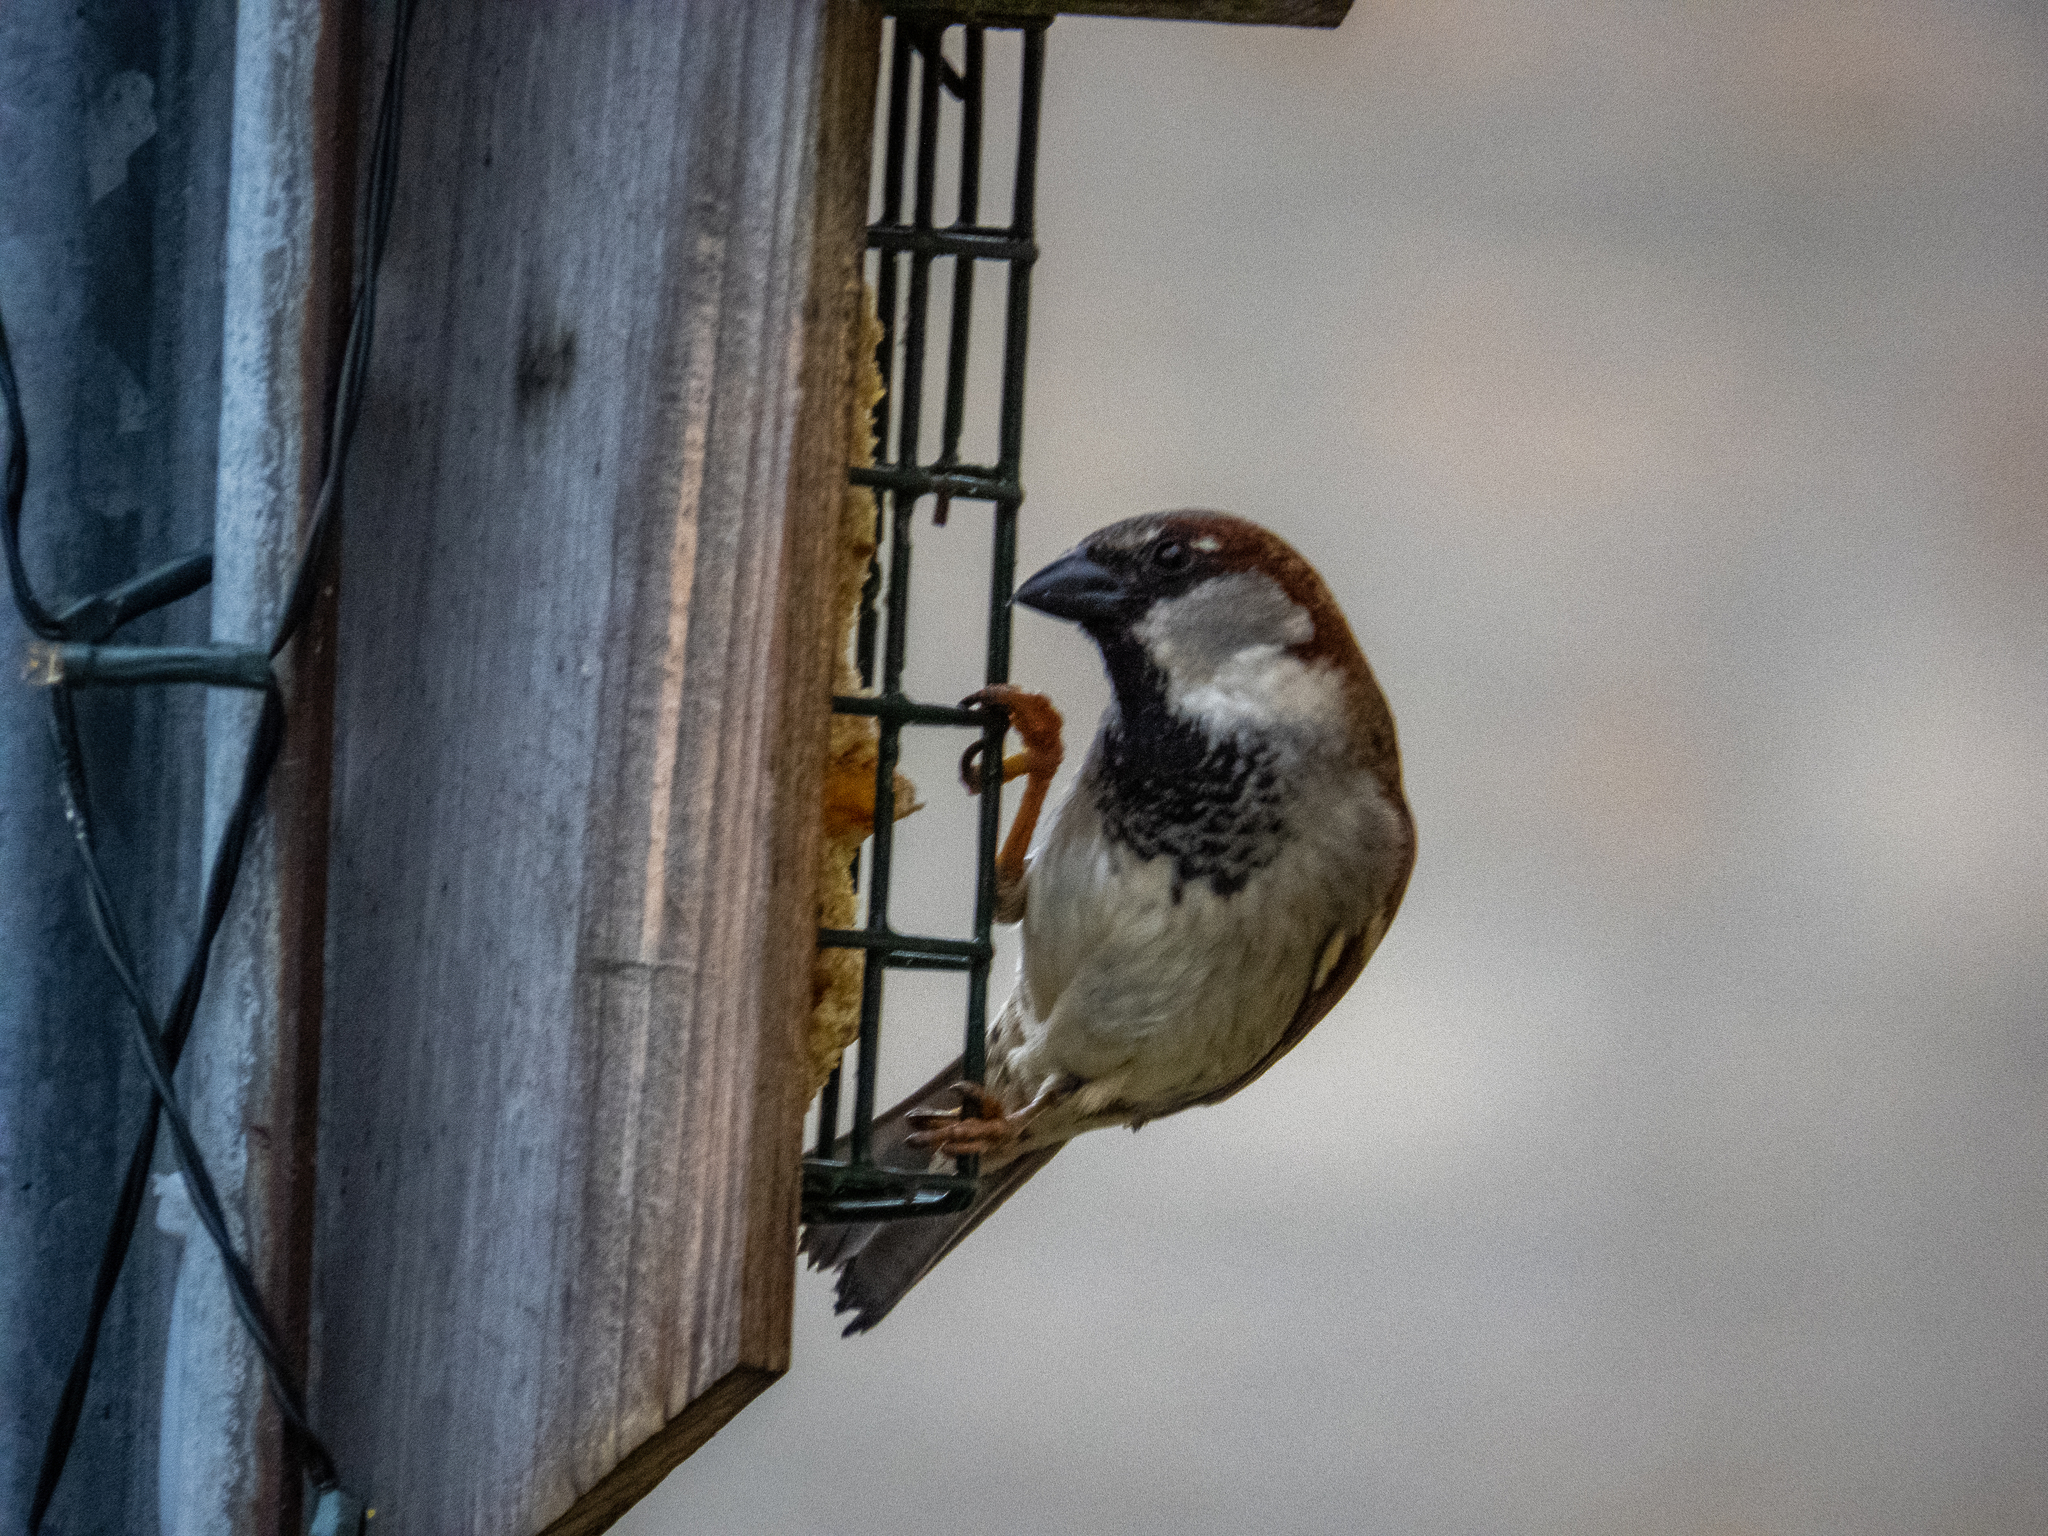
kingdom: Animalia
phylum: Chordata
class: Aves
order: Passeriformes
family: Passeridae
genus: Passer
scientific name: Passer domesticus
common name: House sparrow
